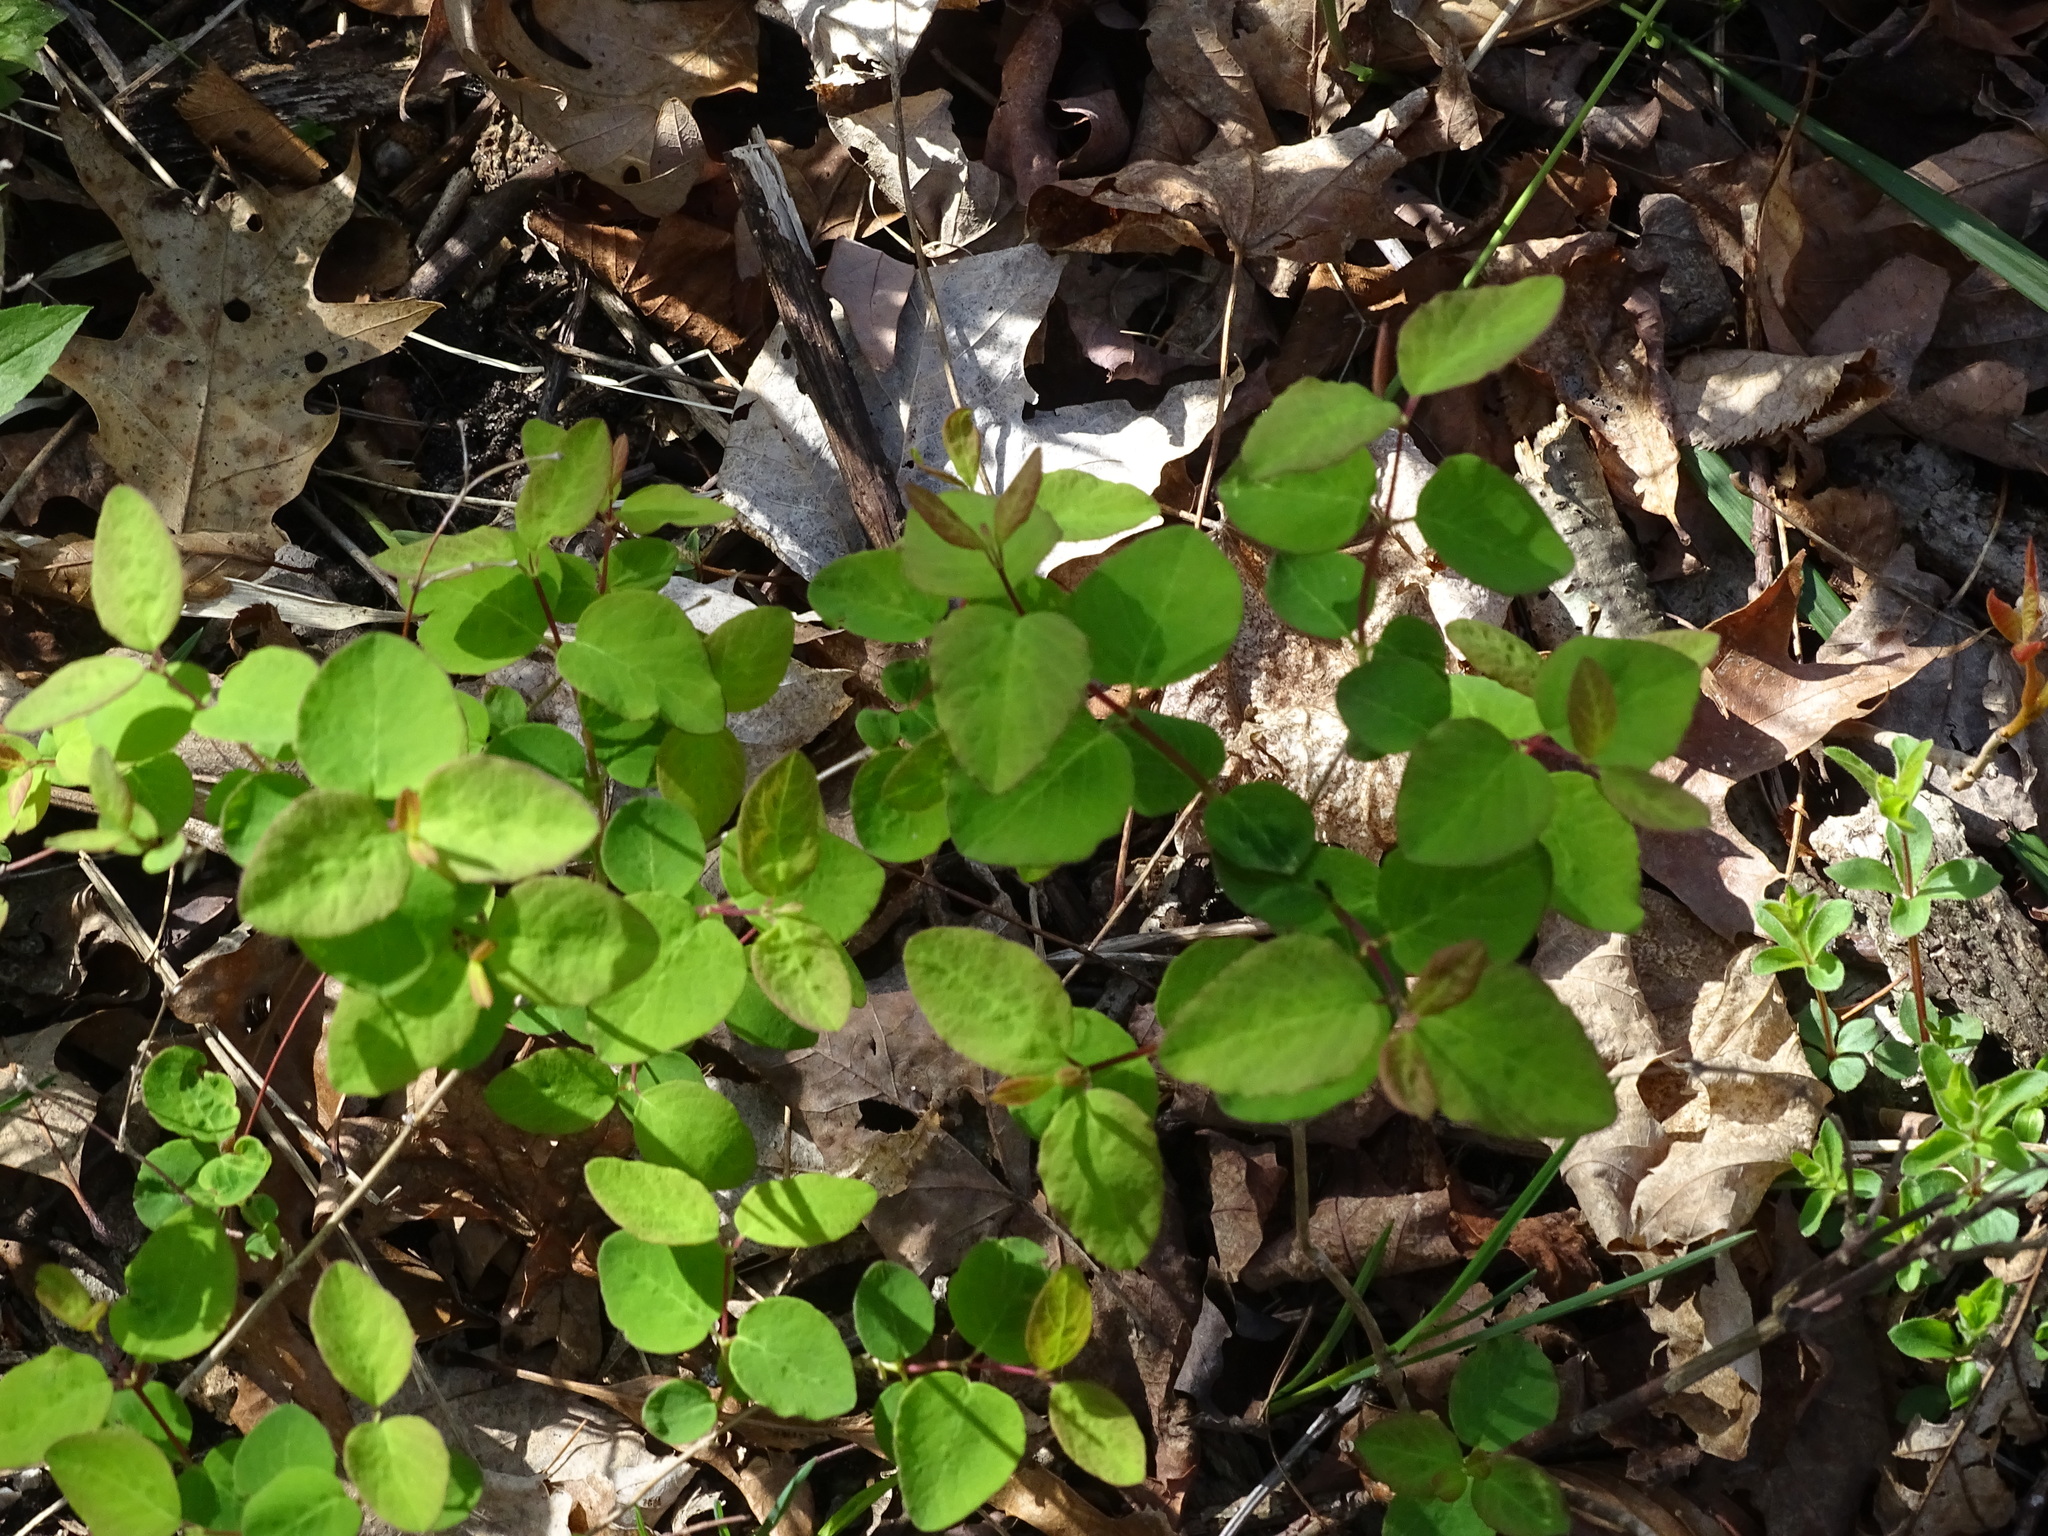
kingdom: Plantae
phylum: Tracheophyta
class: Magnoliopsida
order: Dipsacales
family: Caprifoliaceae
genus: Symphoricarpos
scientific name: Symphoricarpos albus
